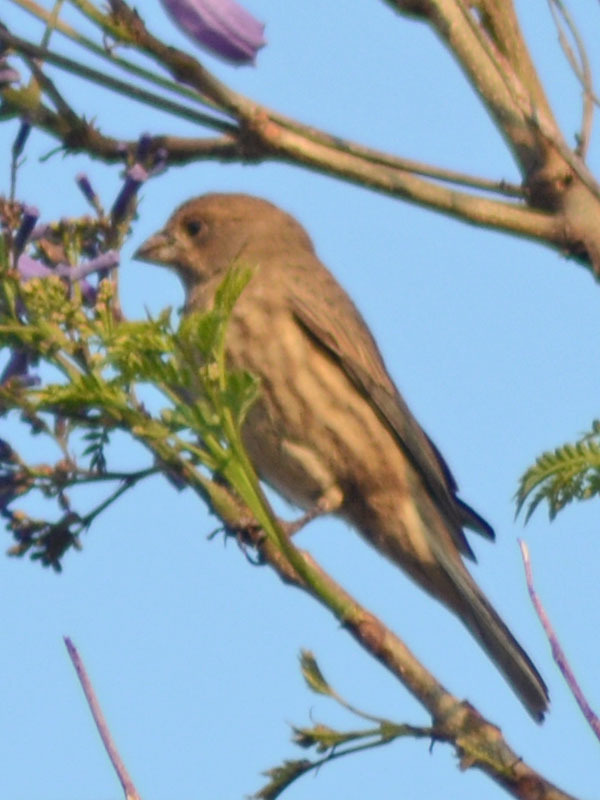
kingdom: Animalia
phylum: Chordata
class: Aves
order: Passeriformes
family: Fringillidae
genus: Haemorhous
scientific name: Haemorhous mexicanus
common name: House finch
